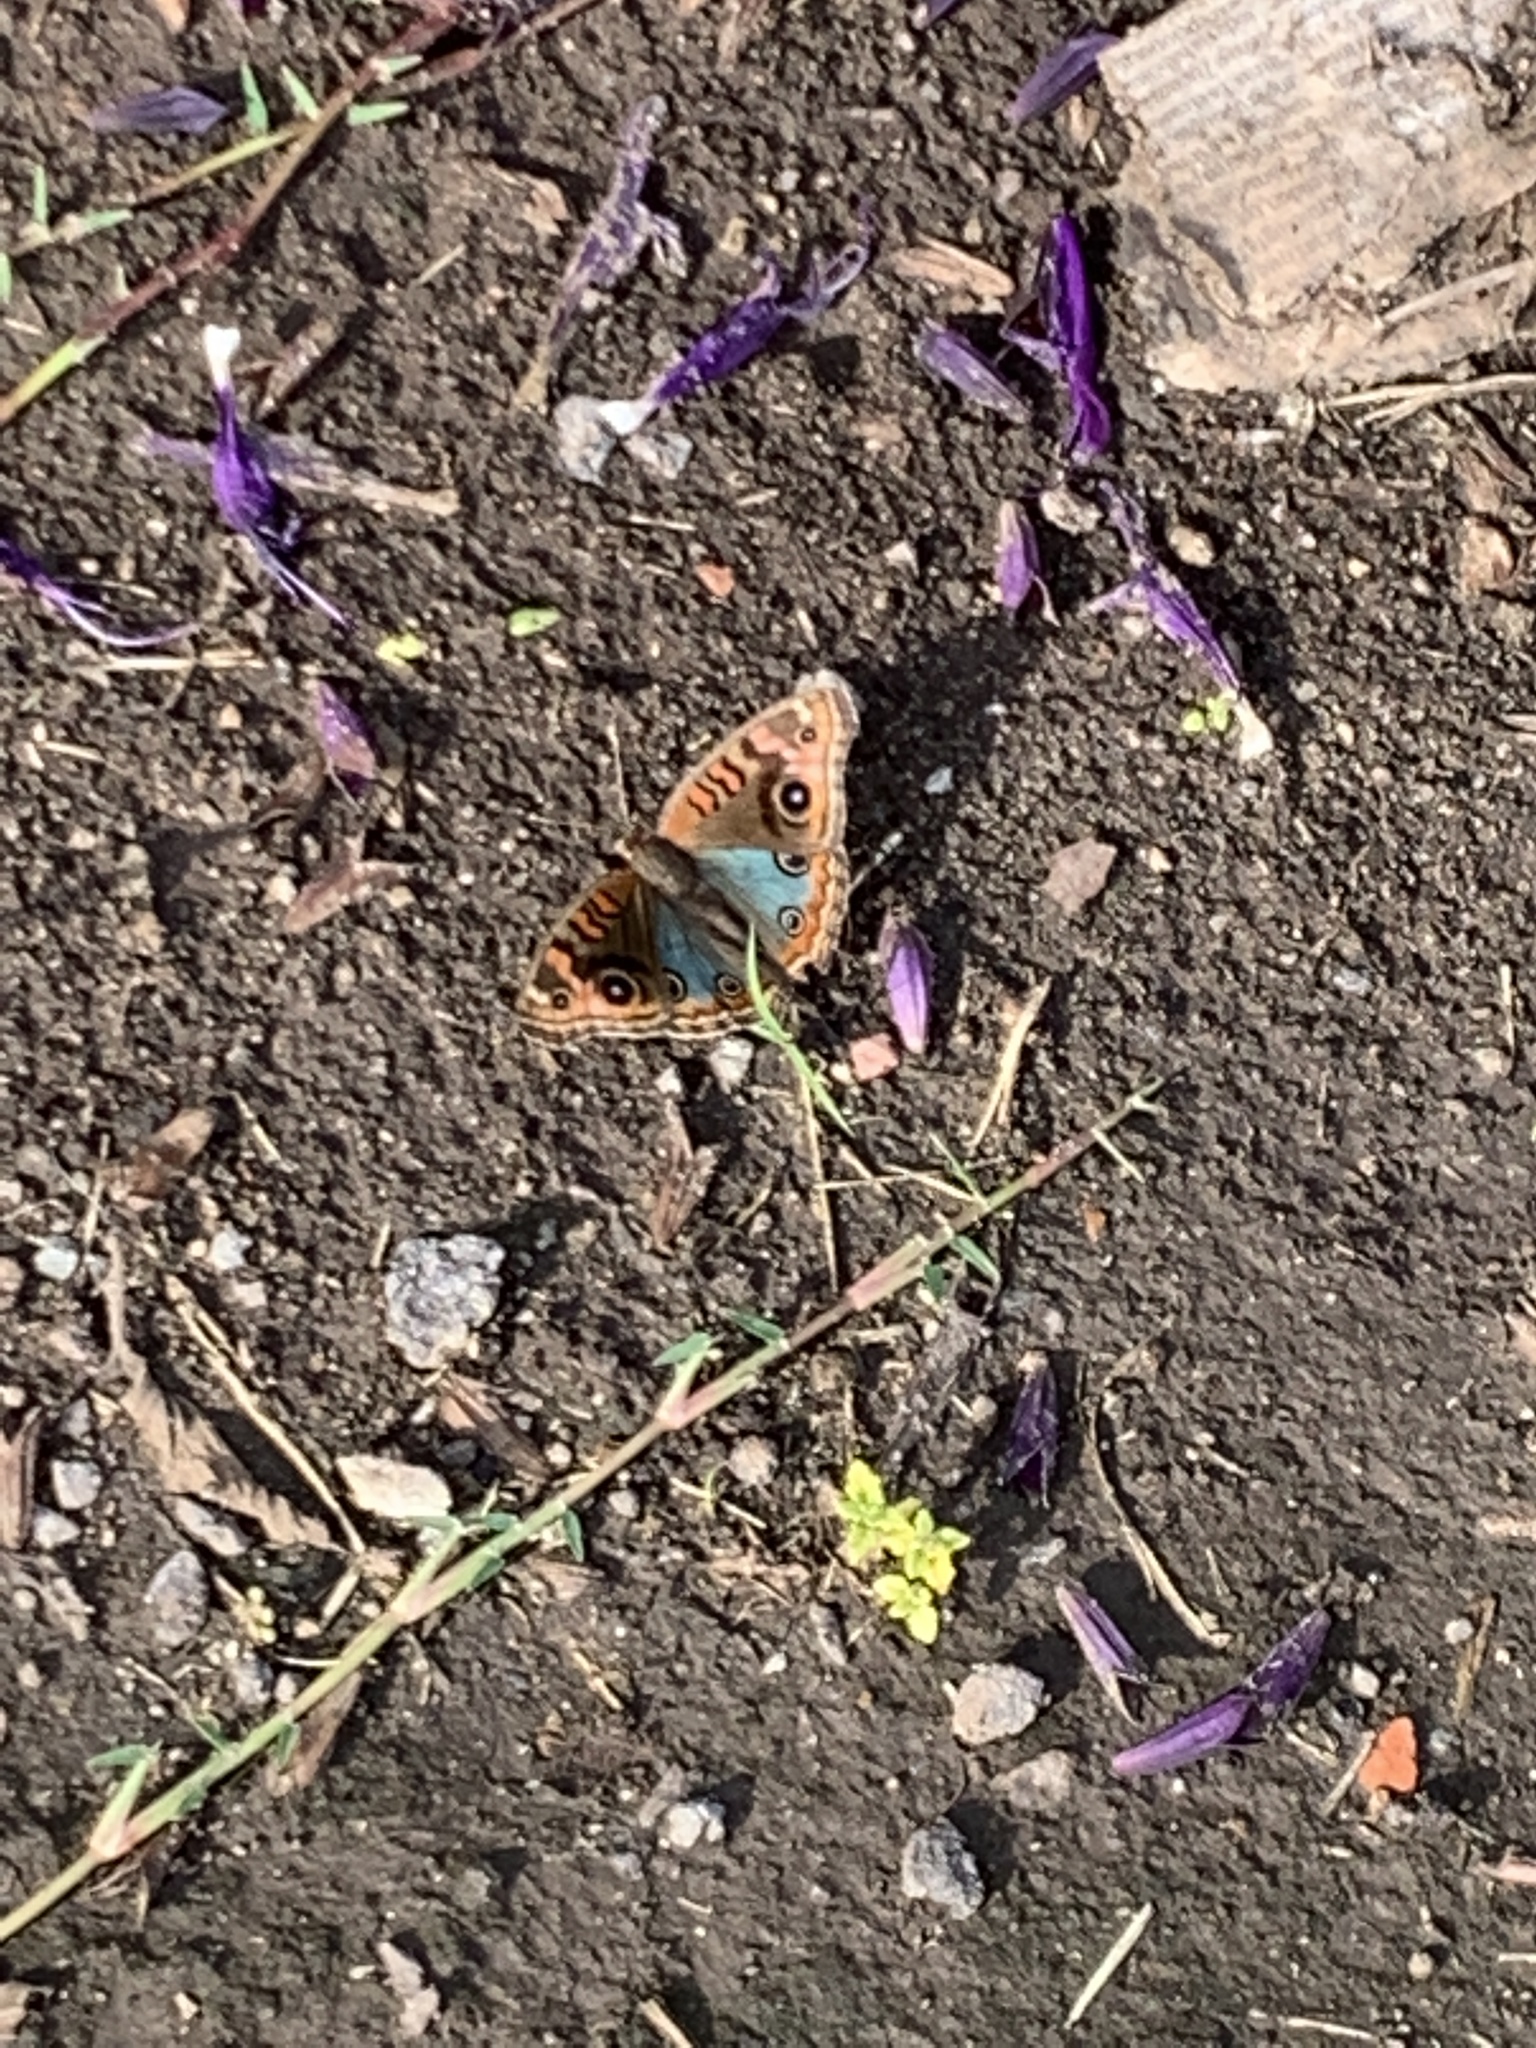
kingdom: Animalia
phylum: Arthropoda
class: Insecta
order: Lepidoptera
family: Nymphalidae
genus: Junonia
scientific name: Junonia lavinia
